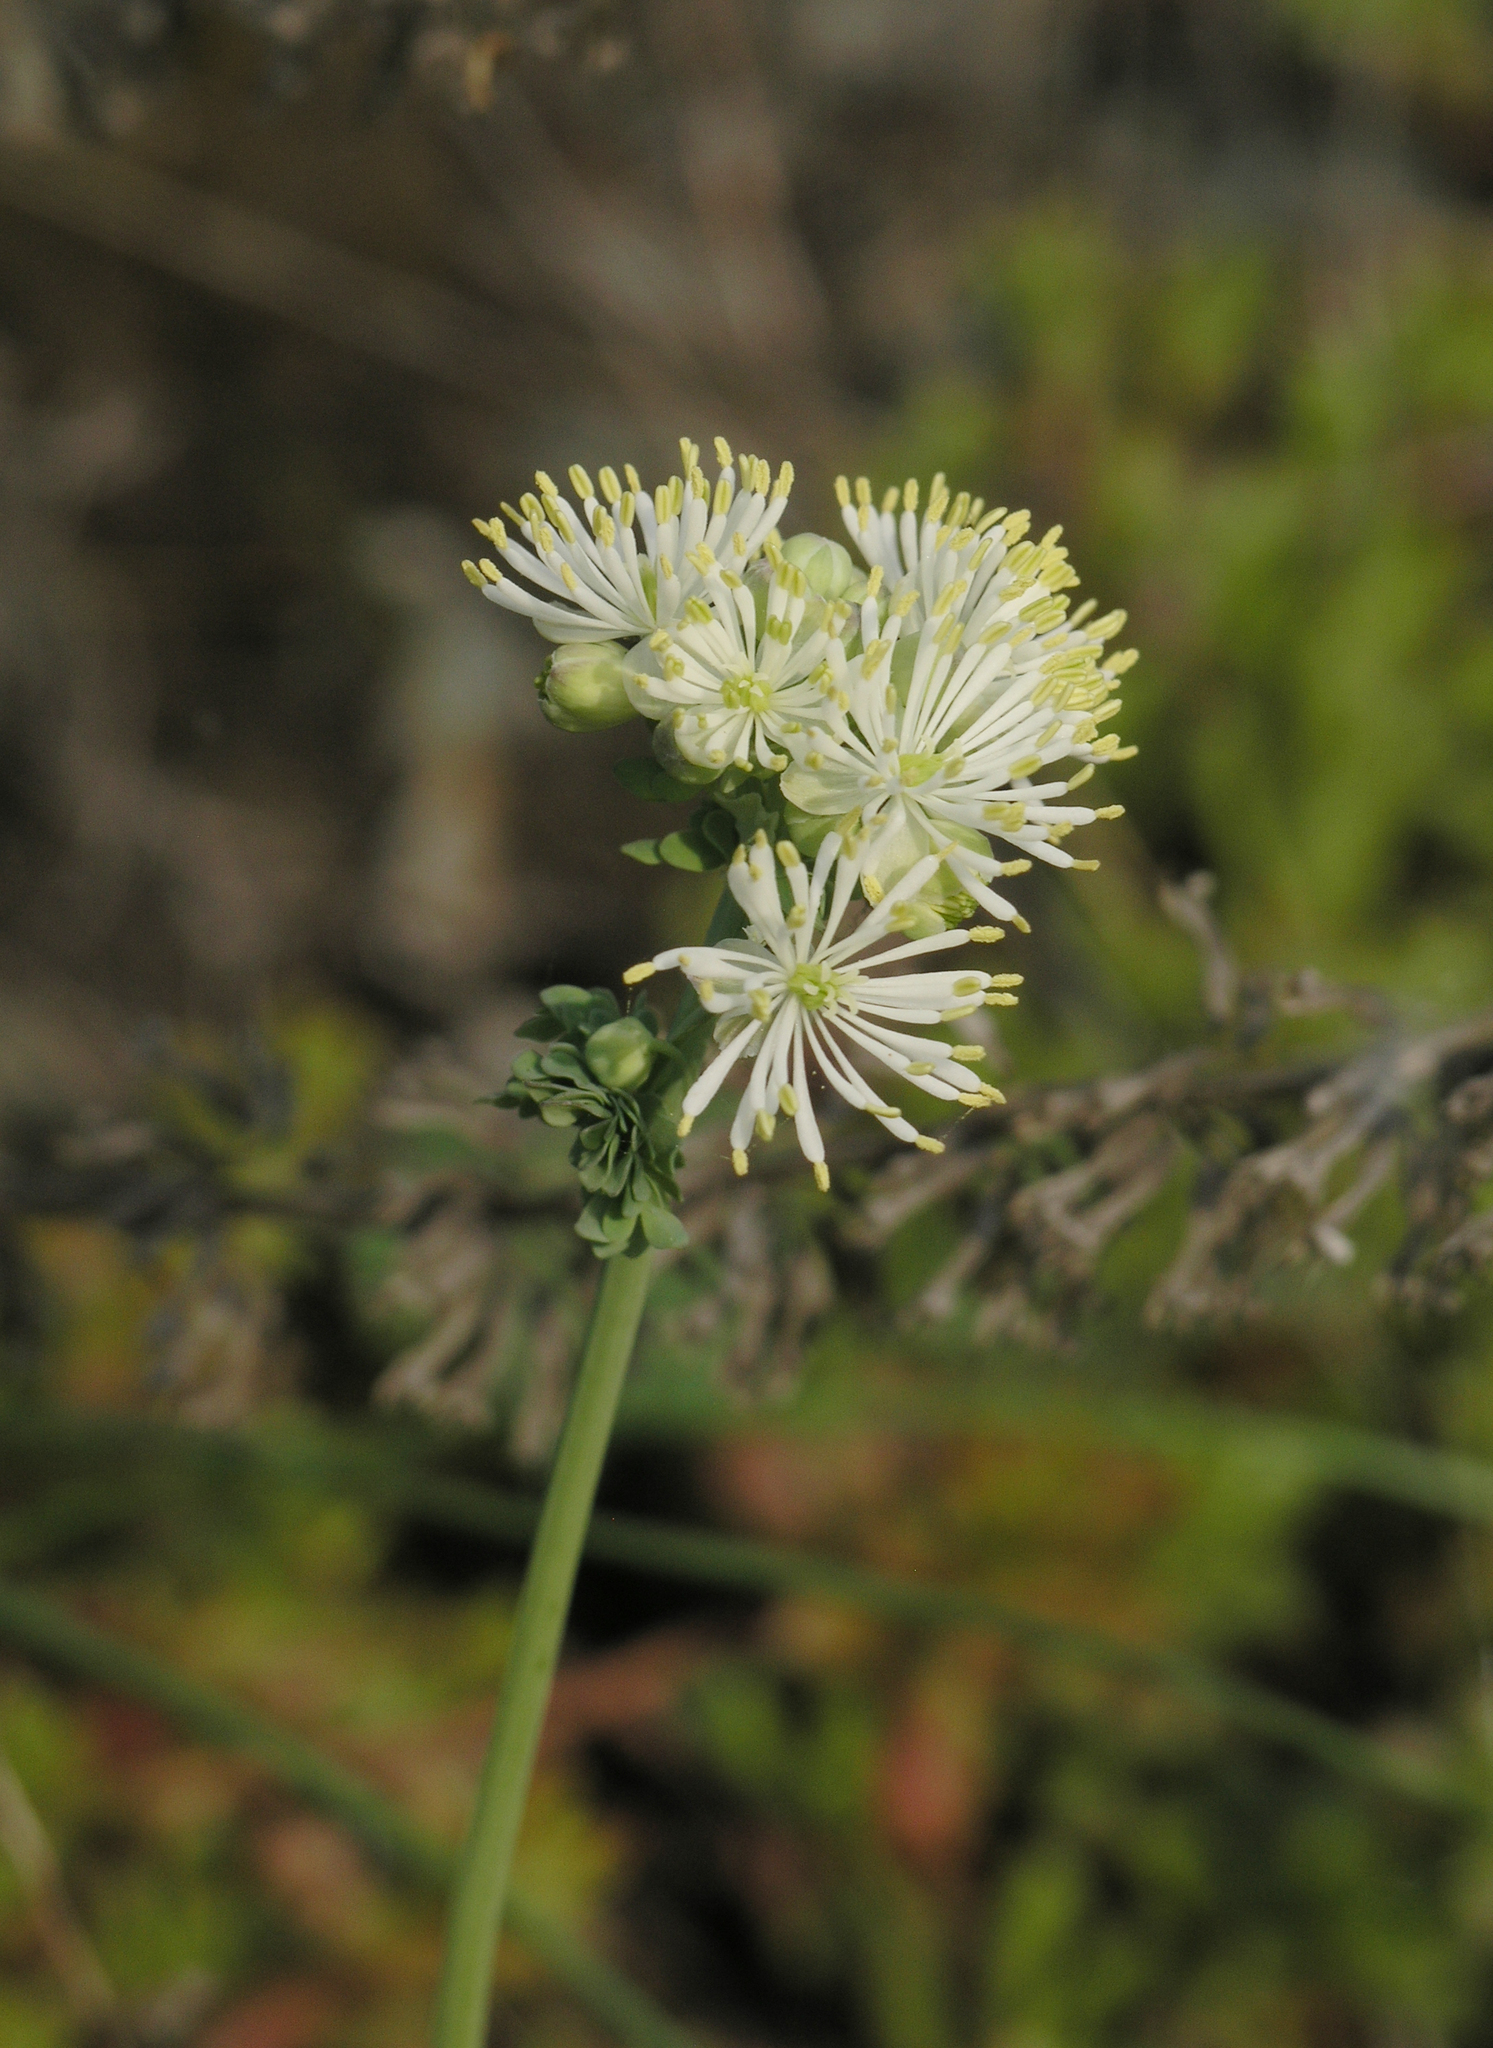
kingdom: Plantae
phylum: Tracheophyta
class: Magnoliopsida
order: Ranunculales
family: Ranunculaceae
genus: Thalictrum
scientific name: Thalictrum petaloideum
